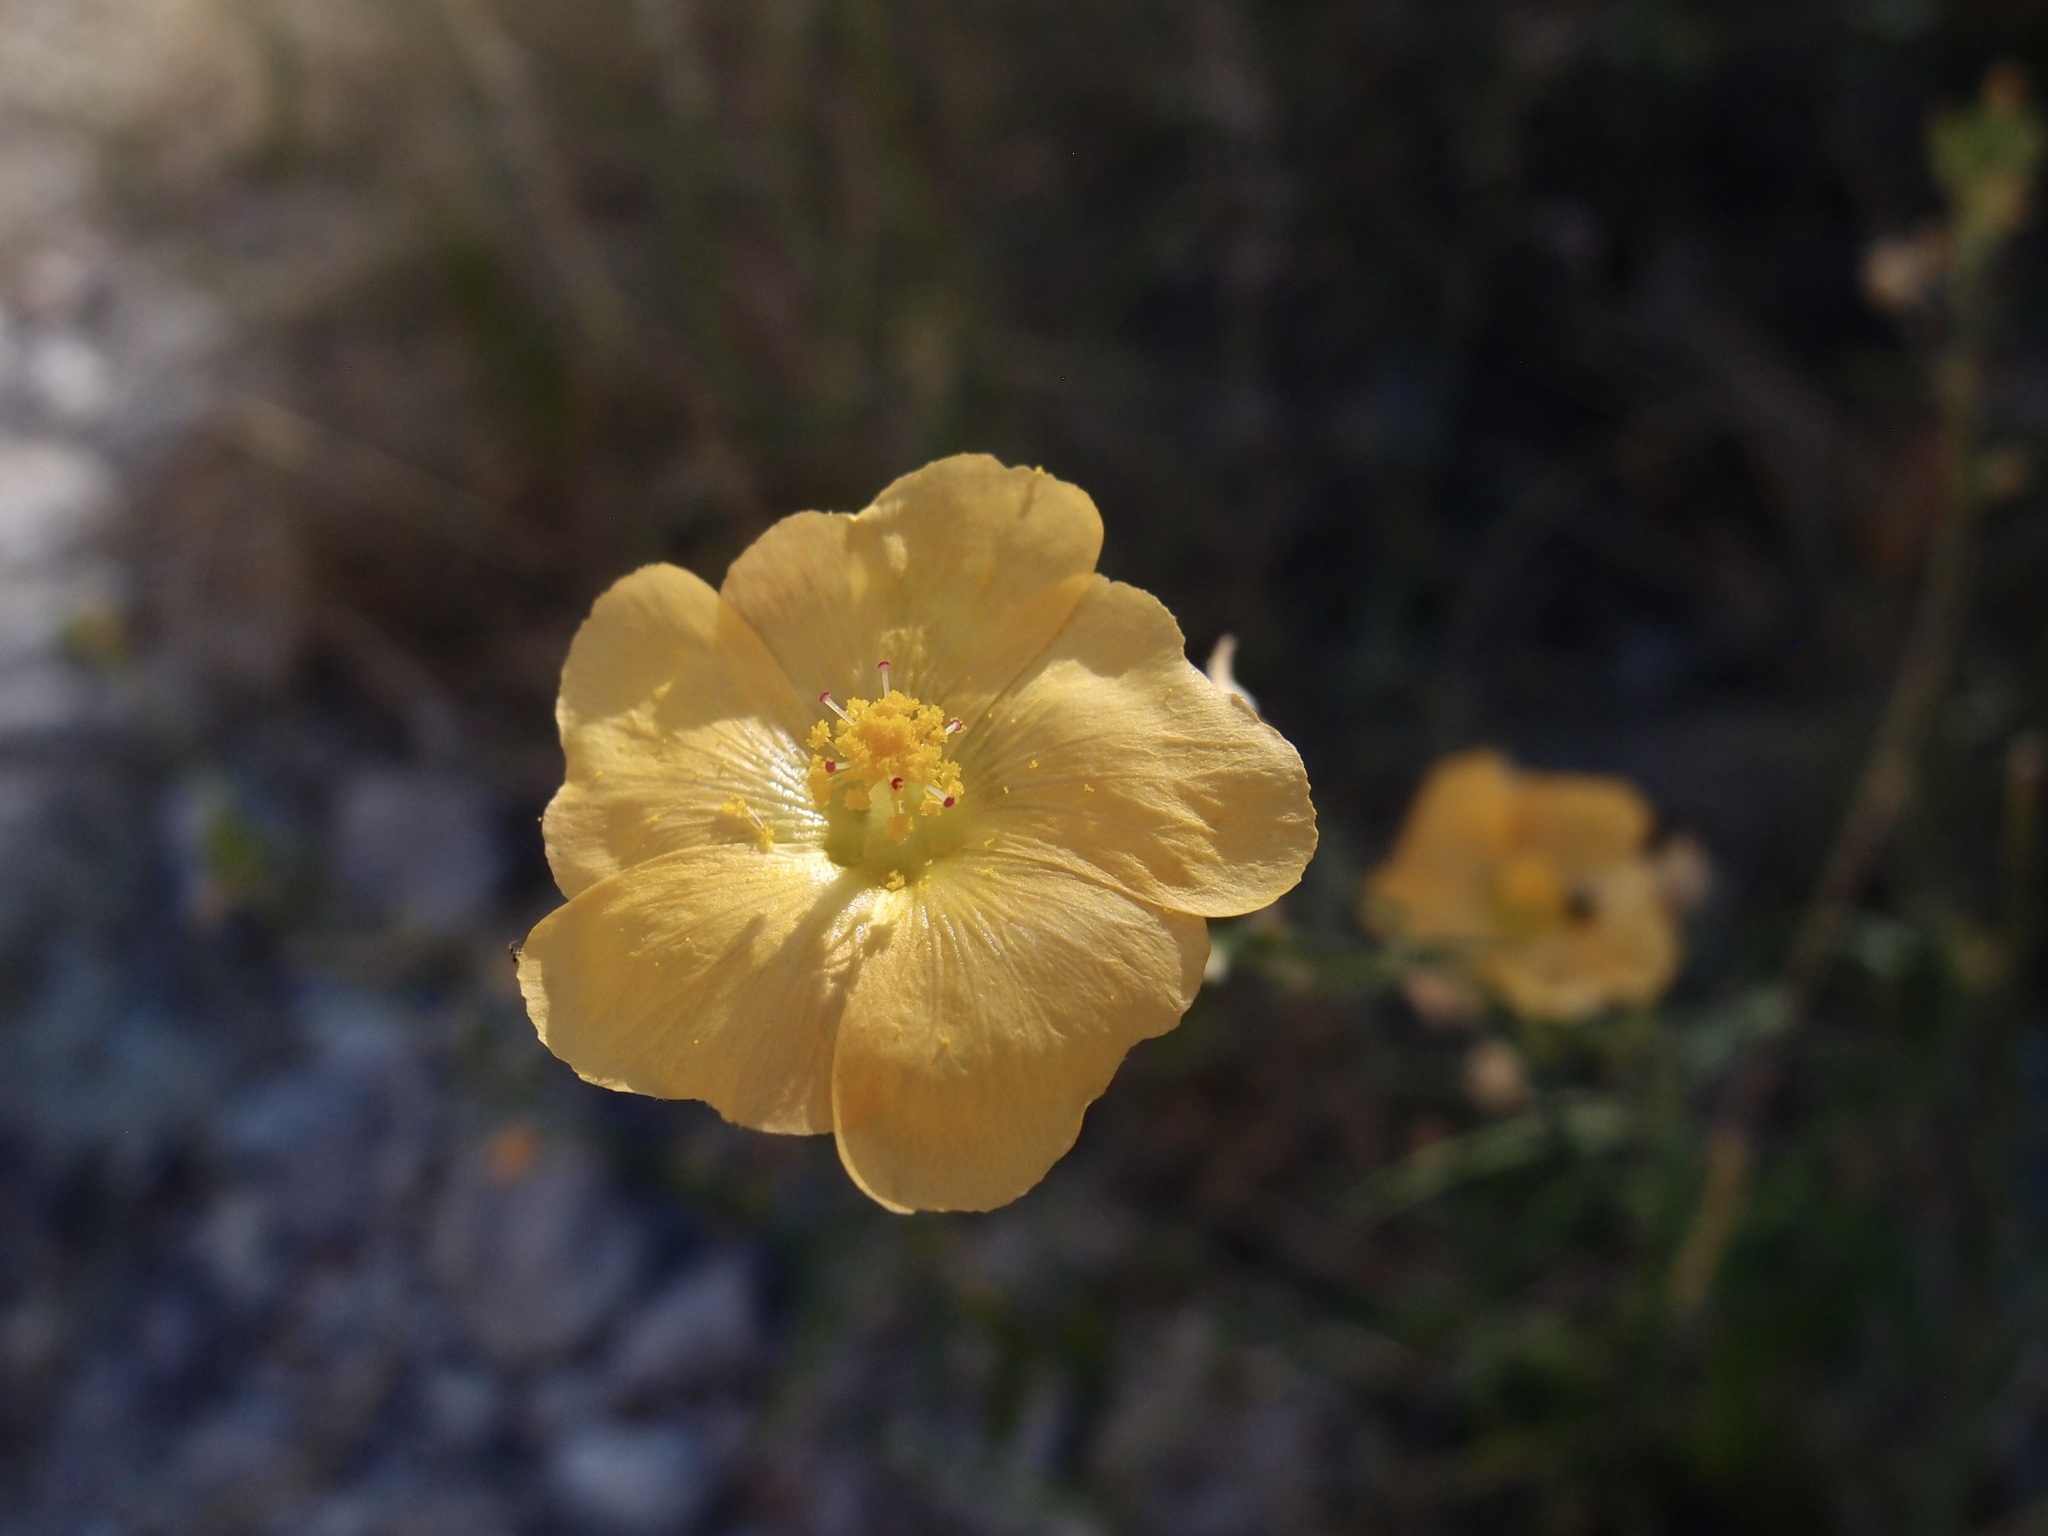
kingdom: Plantae
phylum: Tracheophyta
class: Magnoliopsida
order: Malvales
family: Malvaceae
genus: Sida
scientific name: Sida hyalina
